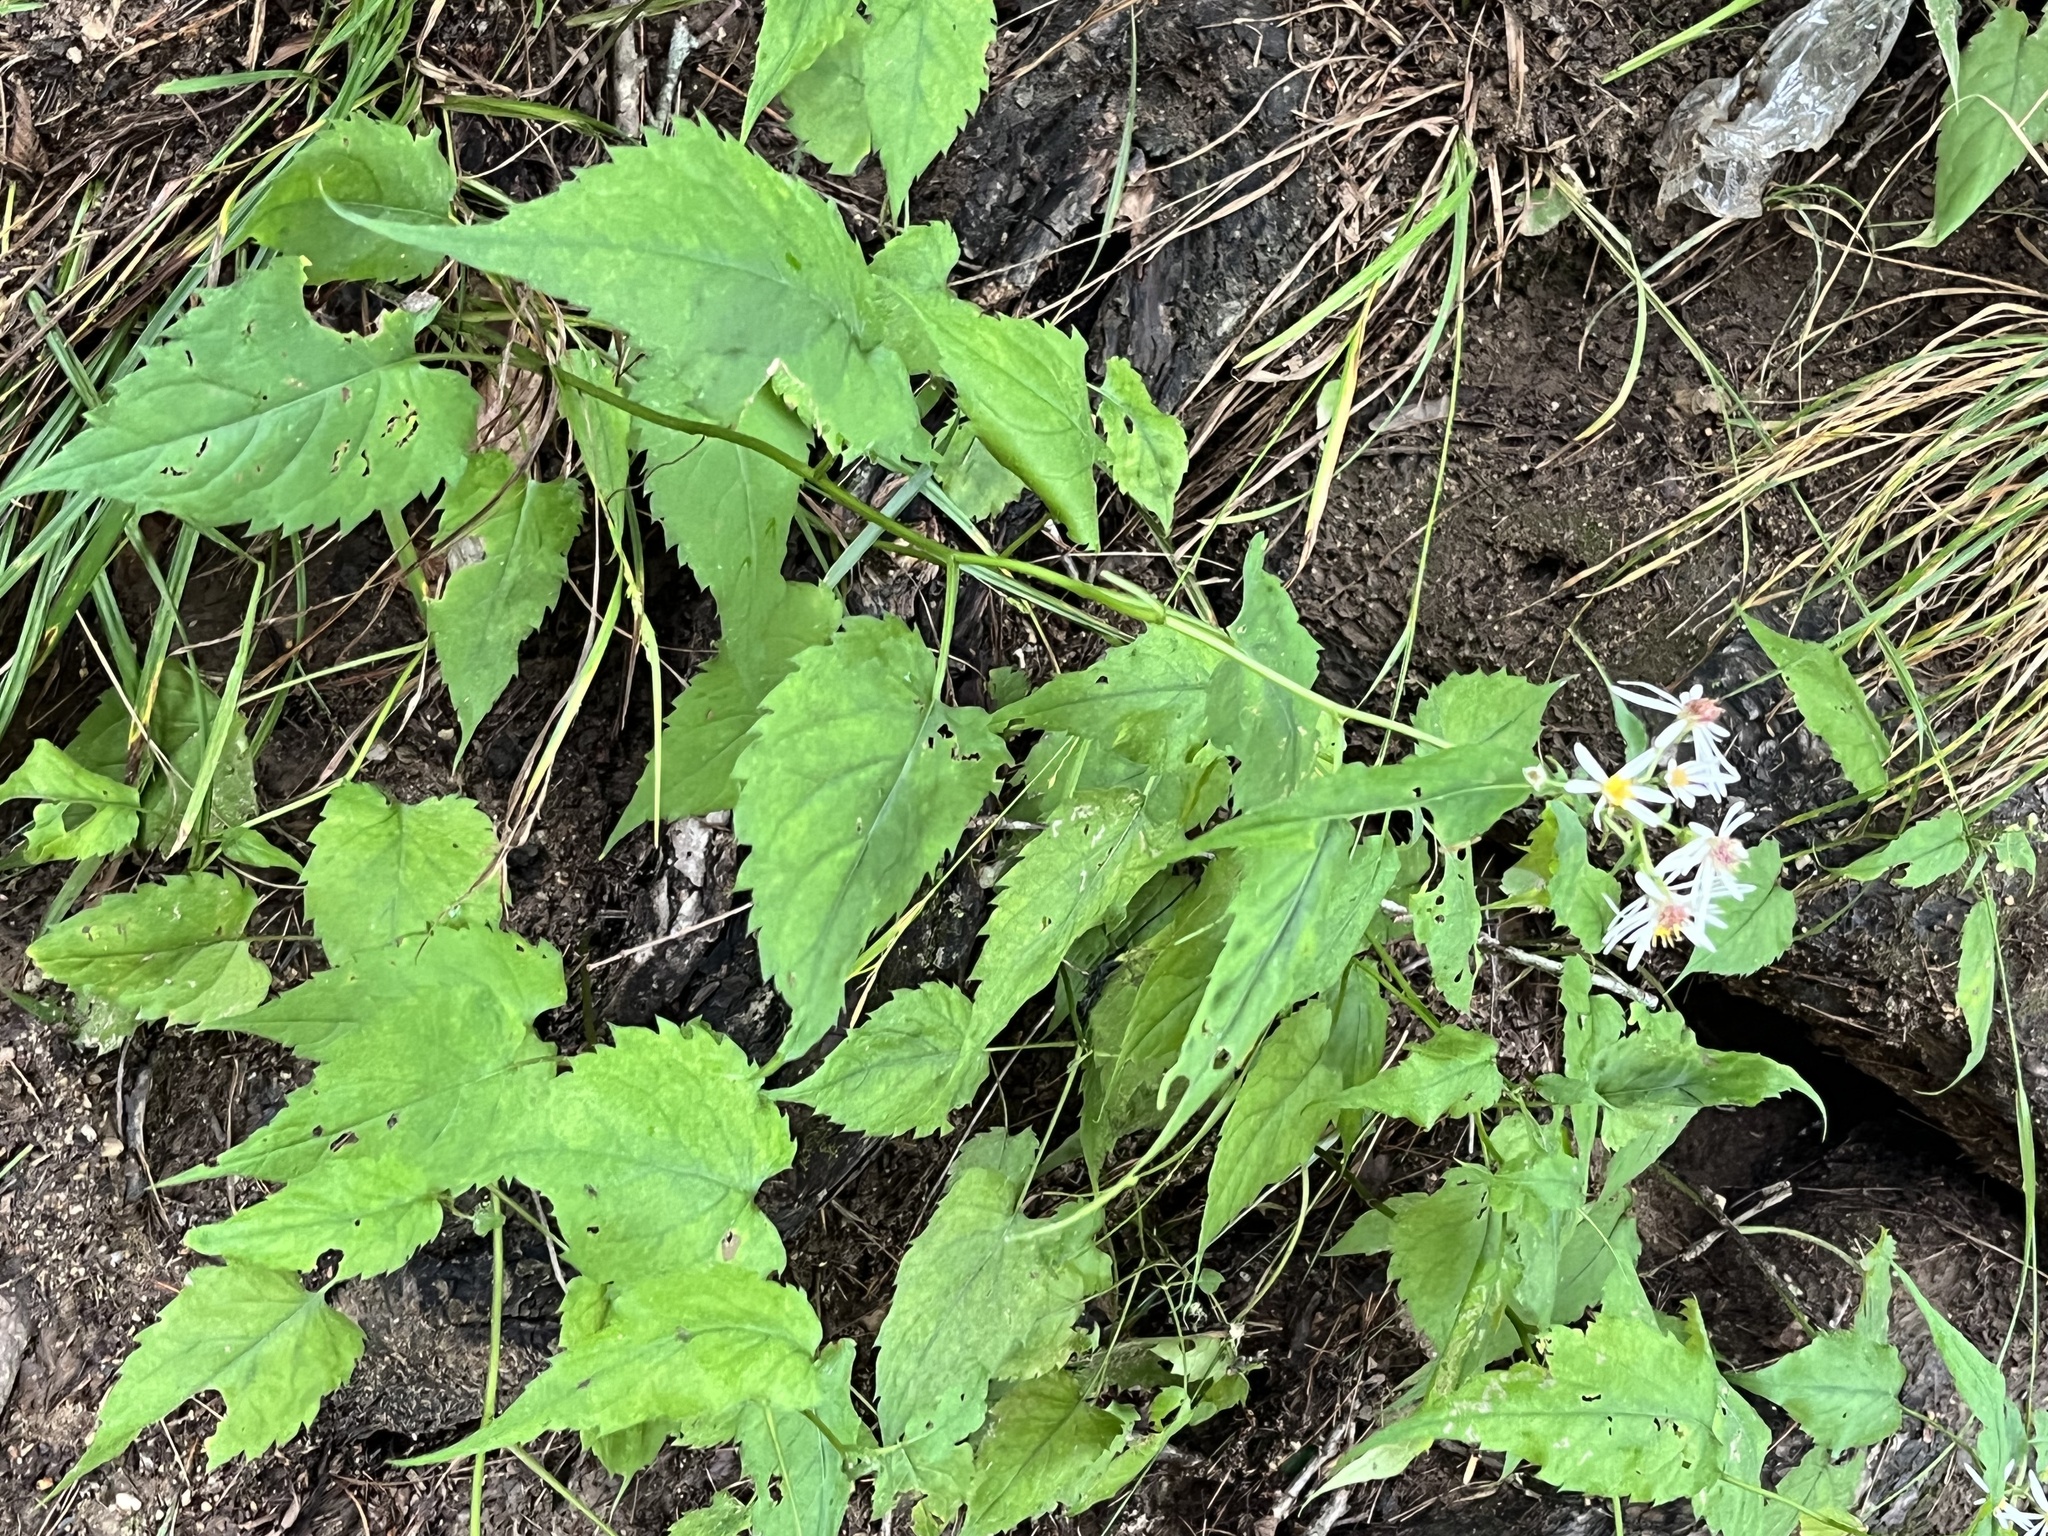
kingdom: Plantae
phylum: Tracheophyta
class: Magnoliopsida
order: Asterales
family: Asteraceae
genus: Eurybia
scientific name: Eurybia divaricata
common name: White wood aster
